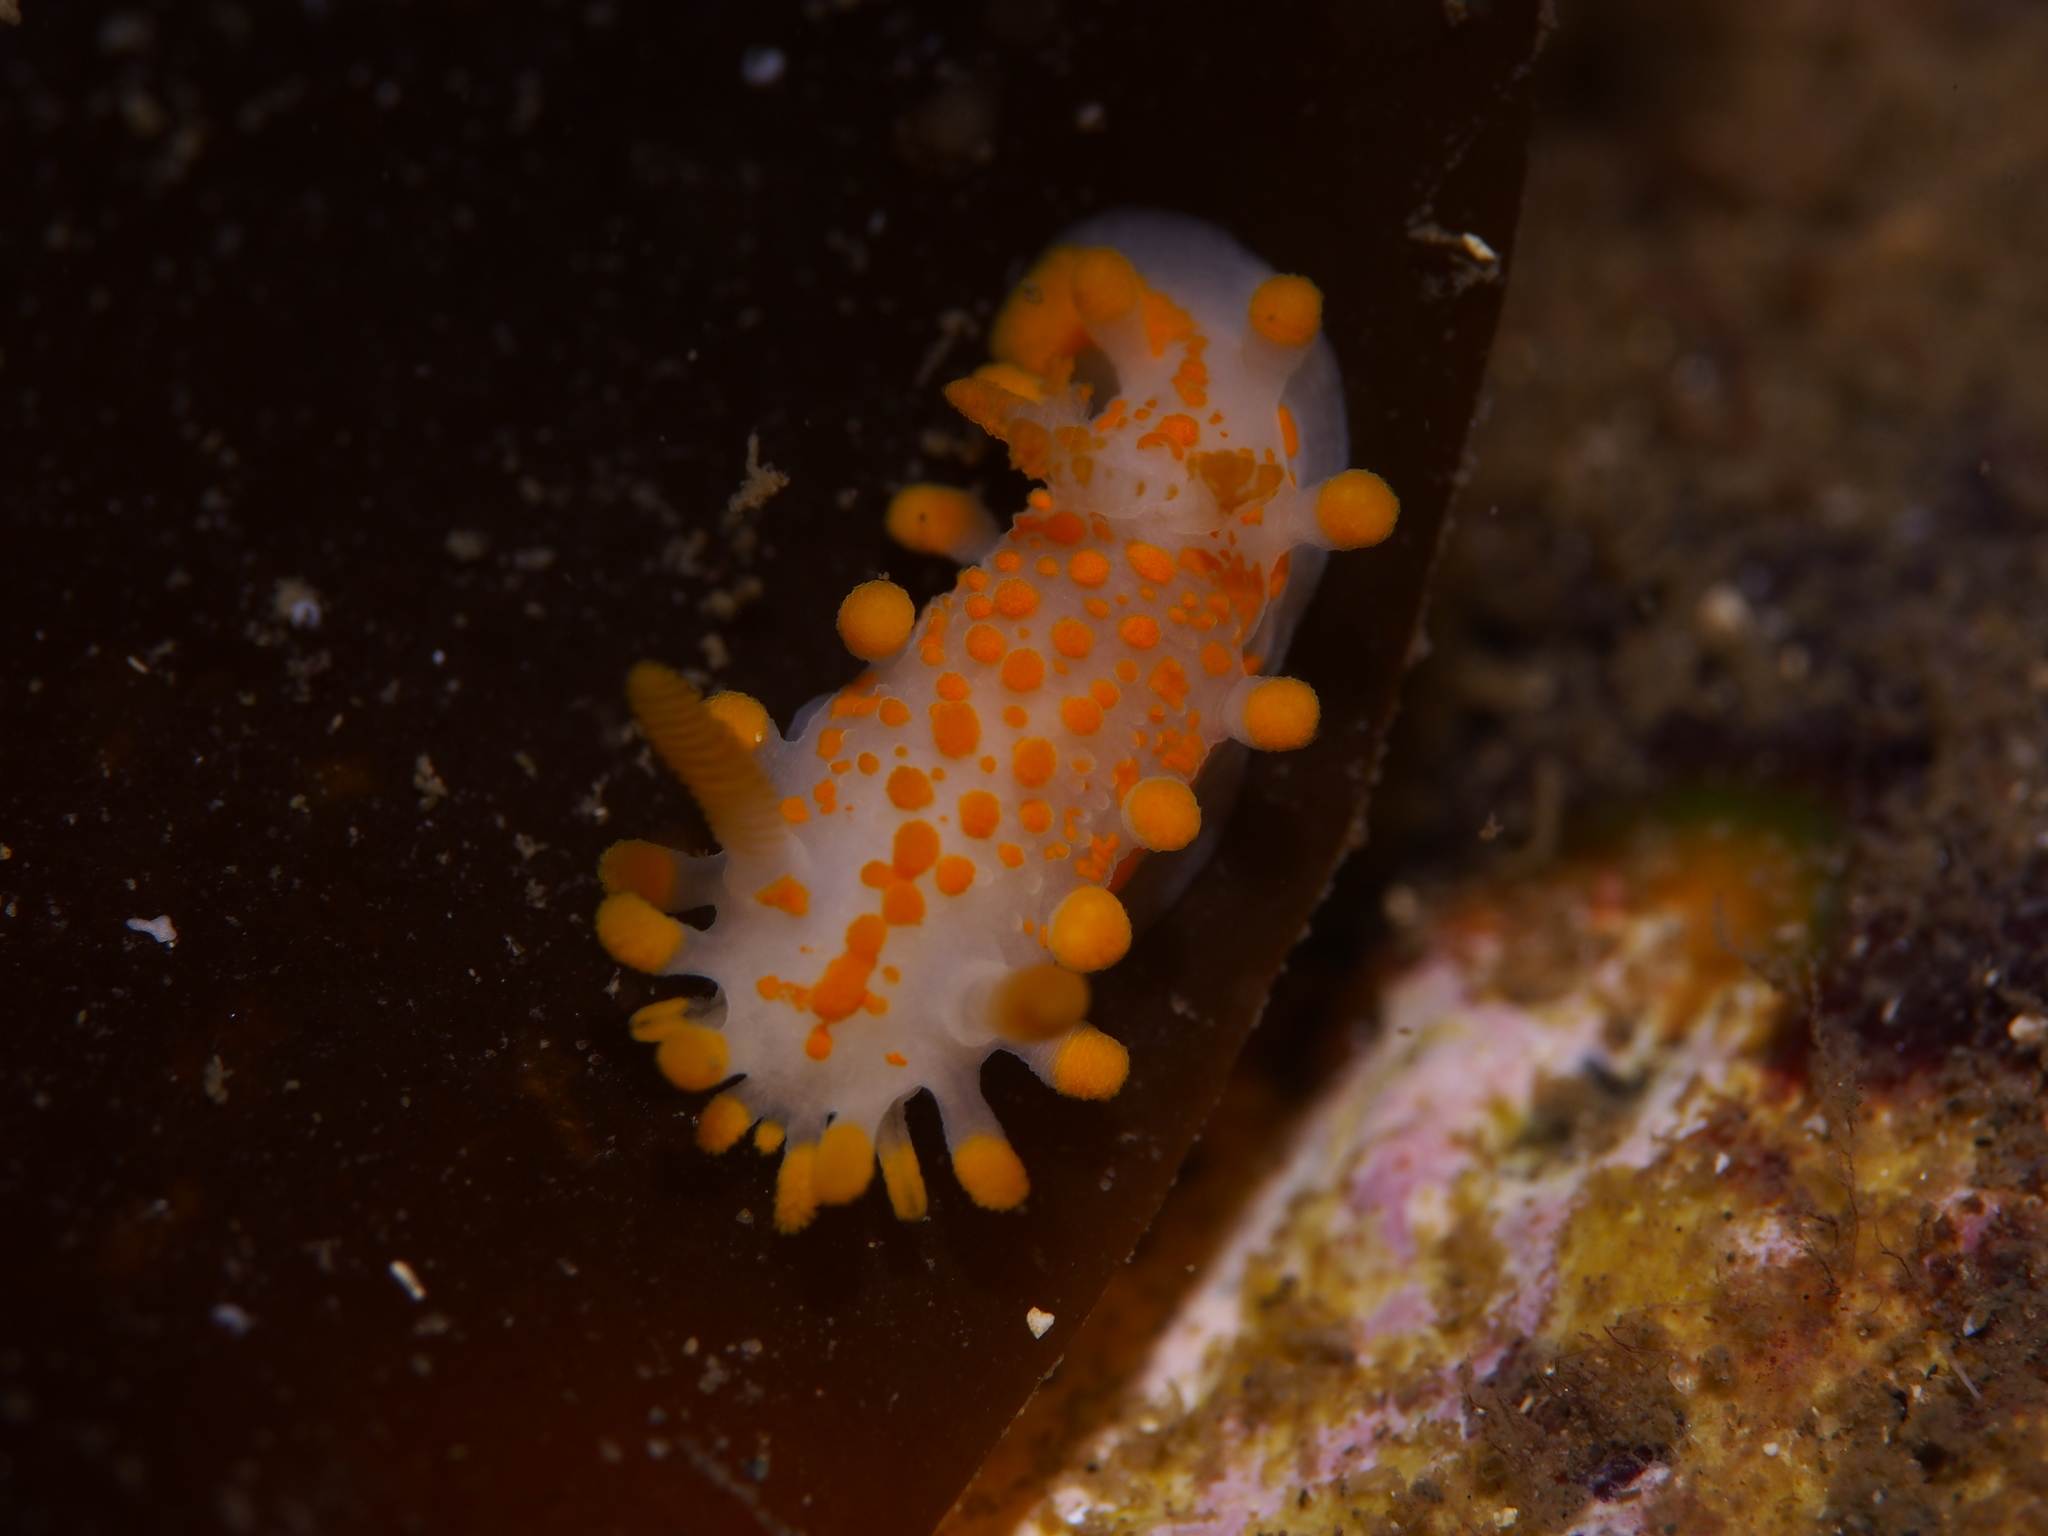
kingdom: Animalia
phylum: Mollusca
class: Gastropoda
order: Nudibranchia
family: Polyceridae
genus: Limacia
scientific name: Limacia clavigera
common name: Orange-clubbed sea slug
